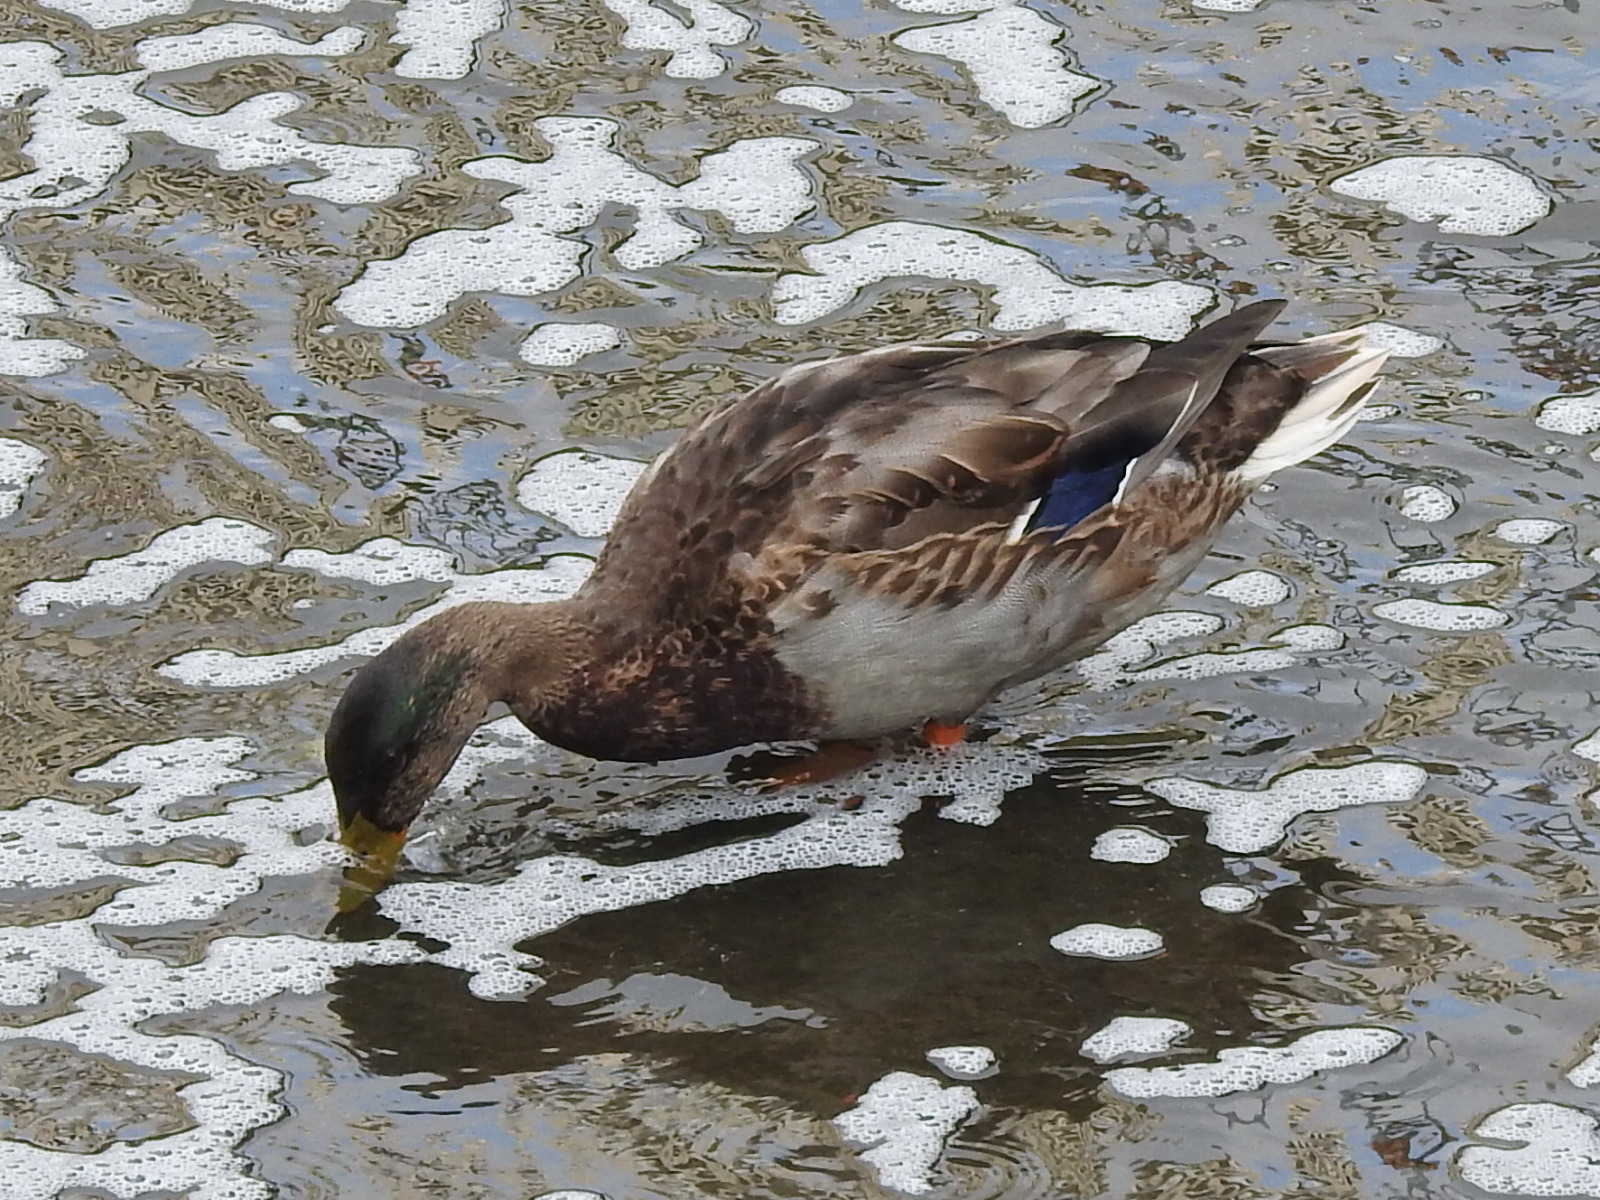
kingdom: Animalia
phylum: Chordata
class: Aves
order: Anseriformes
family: Anatidae
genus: Anas
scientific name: Anas platyrhynchos
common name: Mallard
